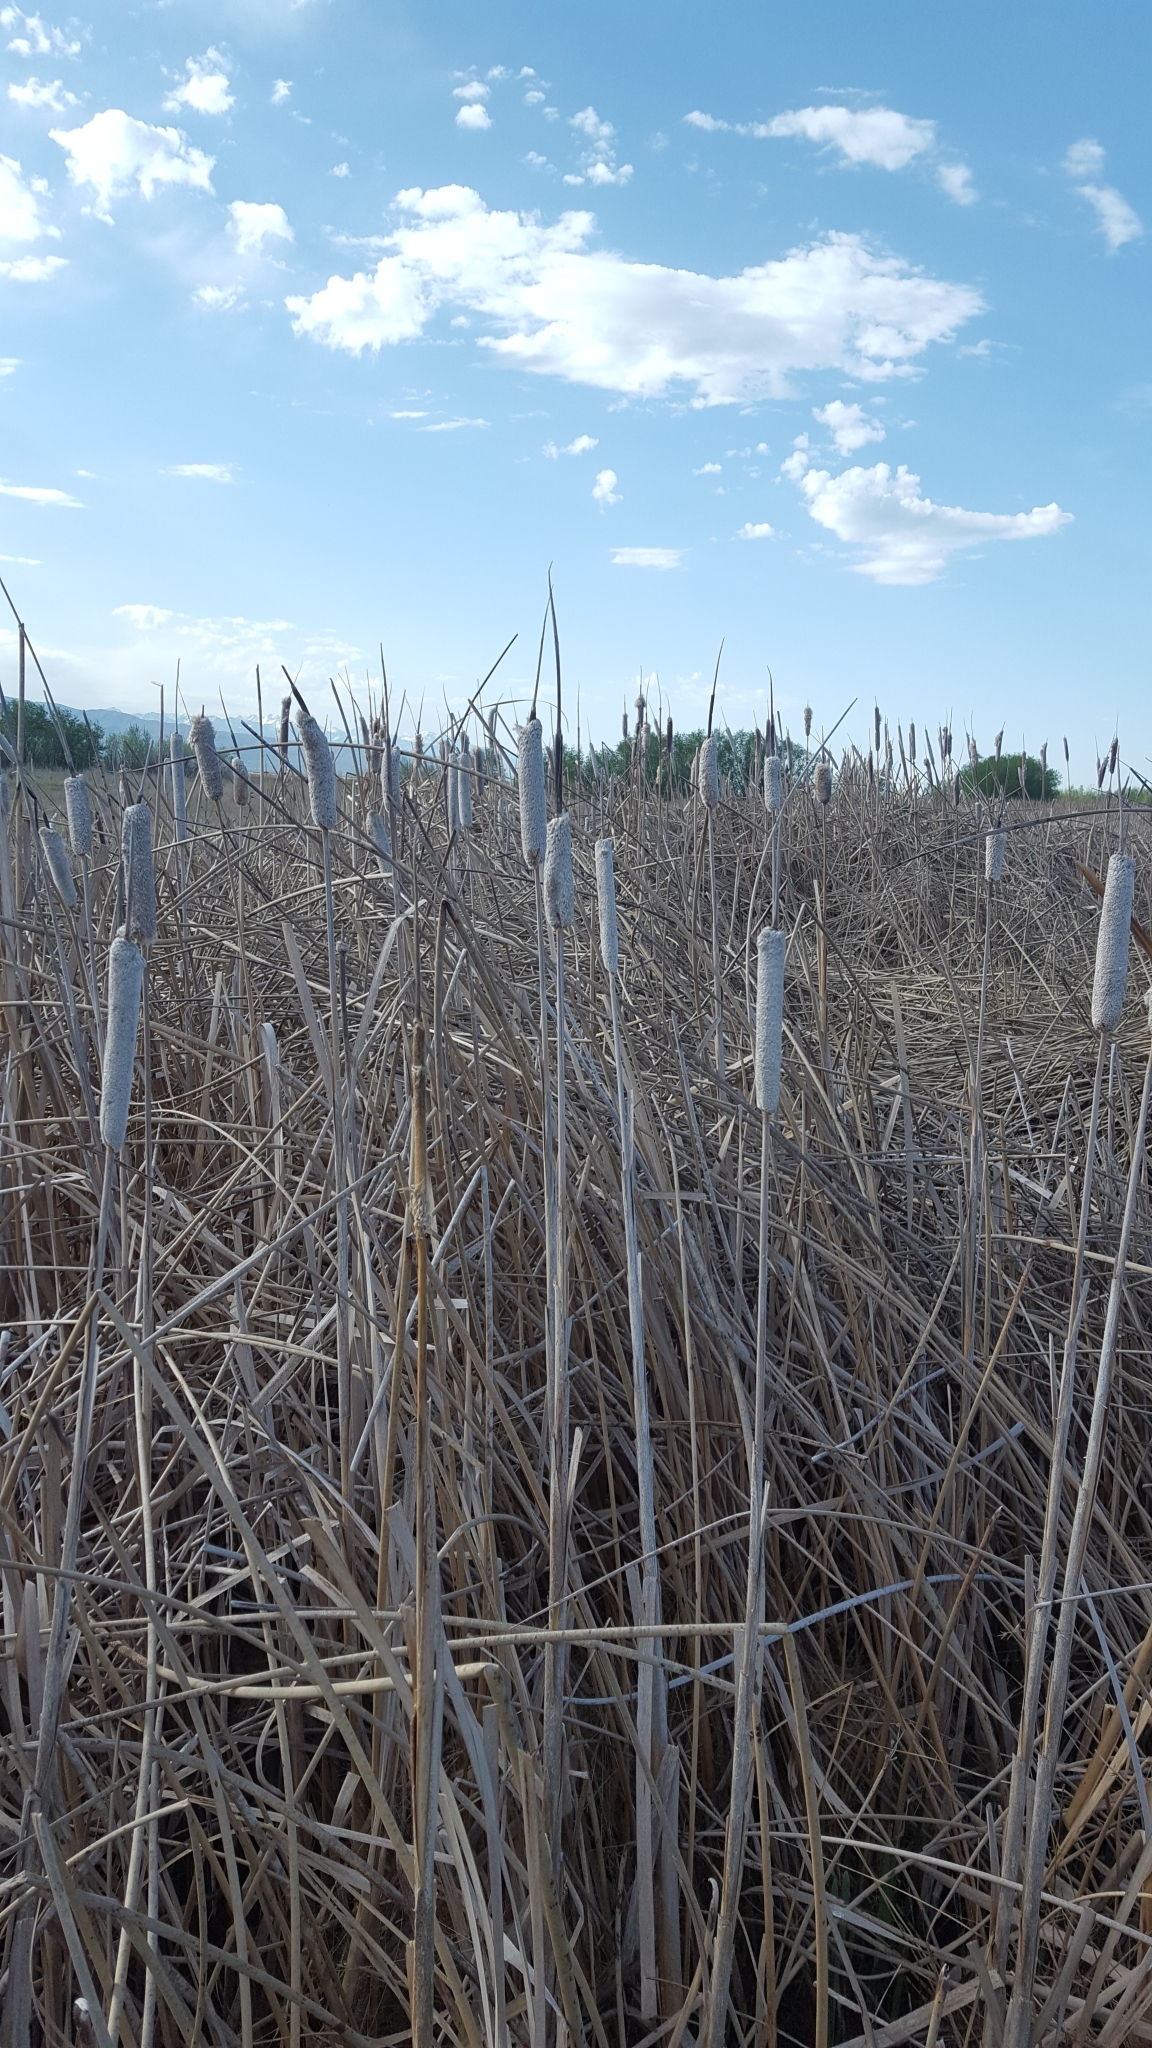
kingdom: Plantae
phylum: Tracheophyta
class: Liliopsida
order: Poales
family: Typhaceae
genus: Typha
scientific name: Typha latifolia
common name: Broadleaf cattail
